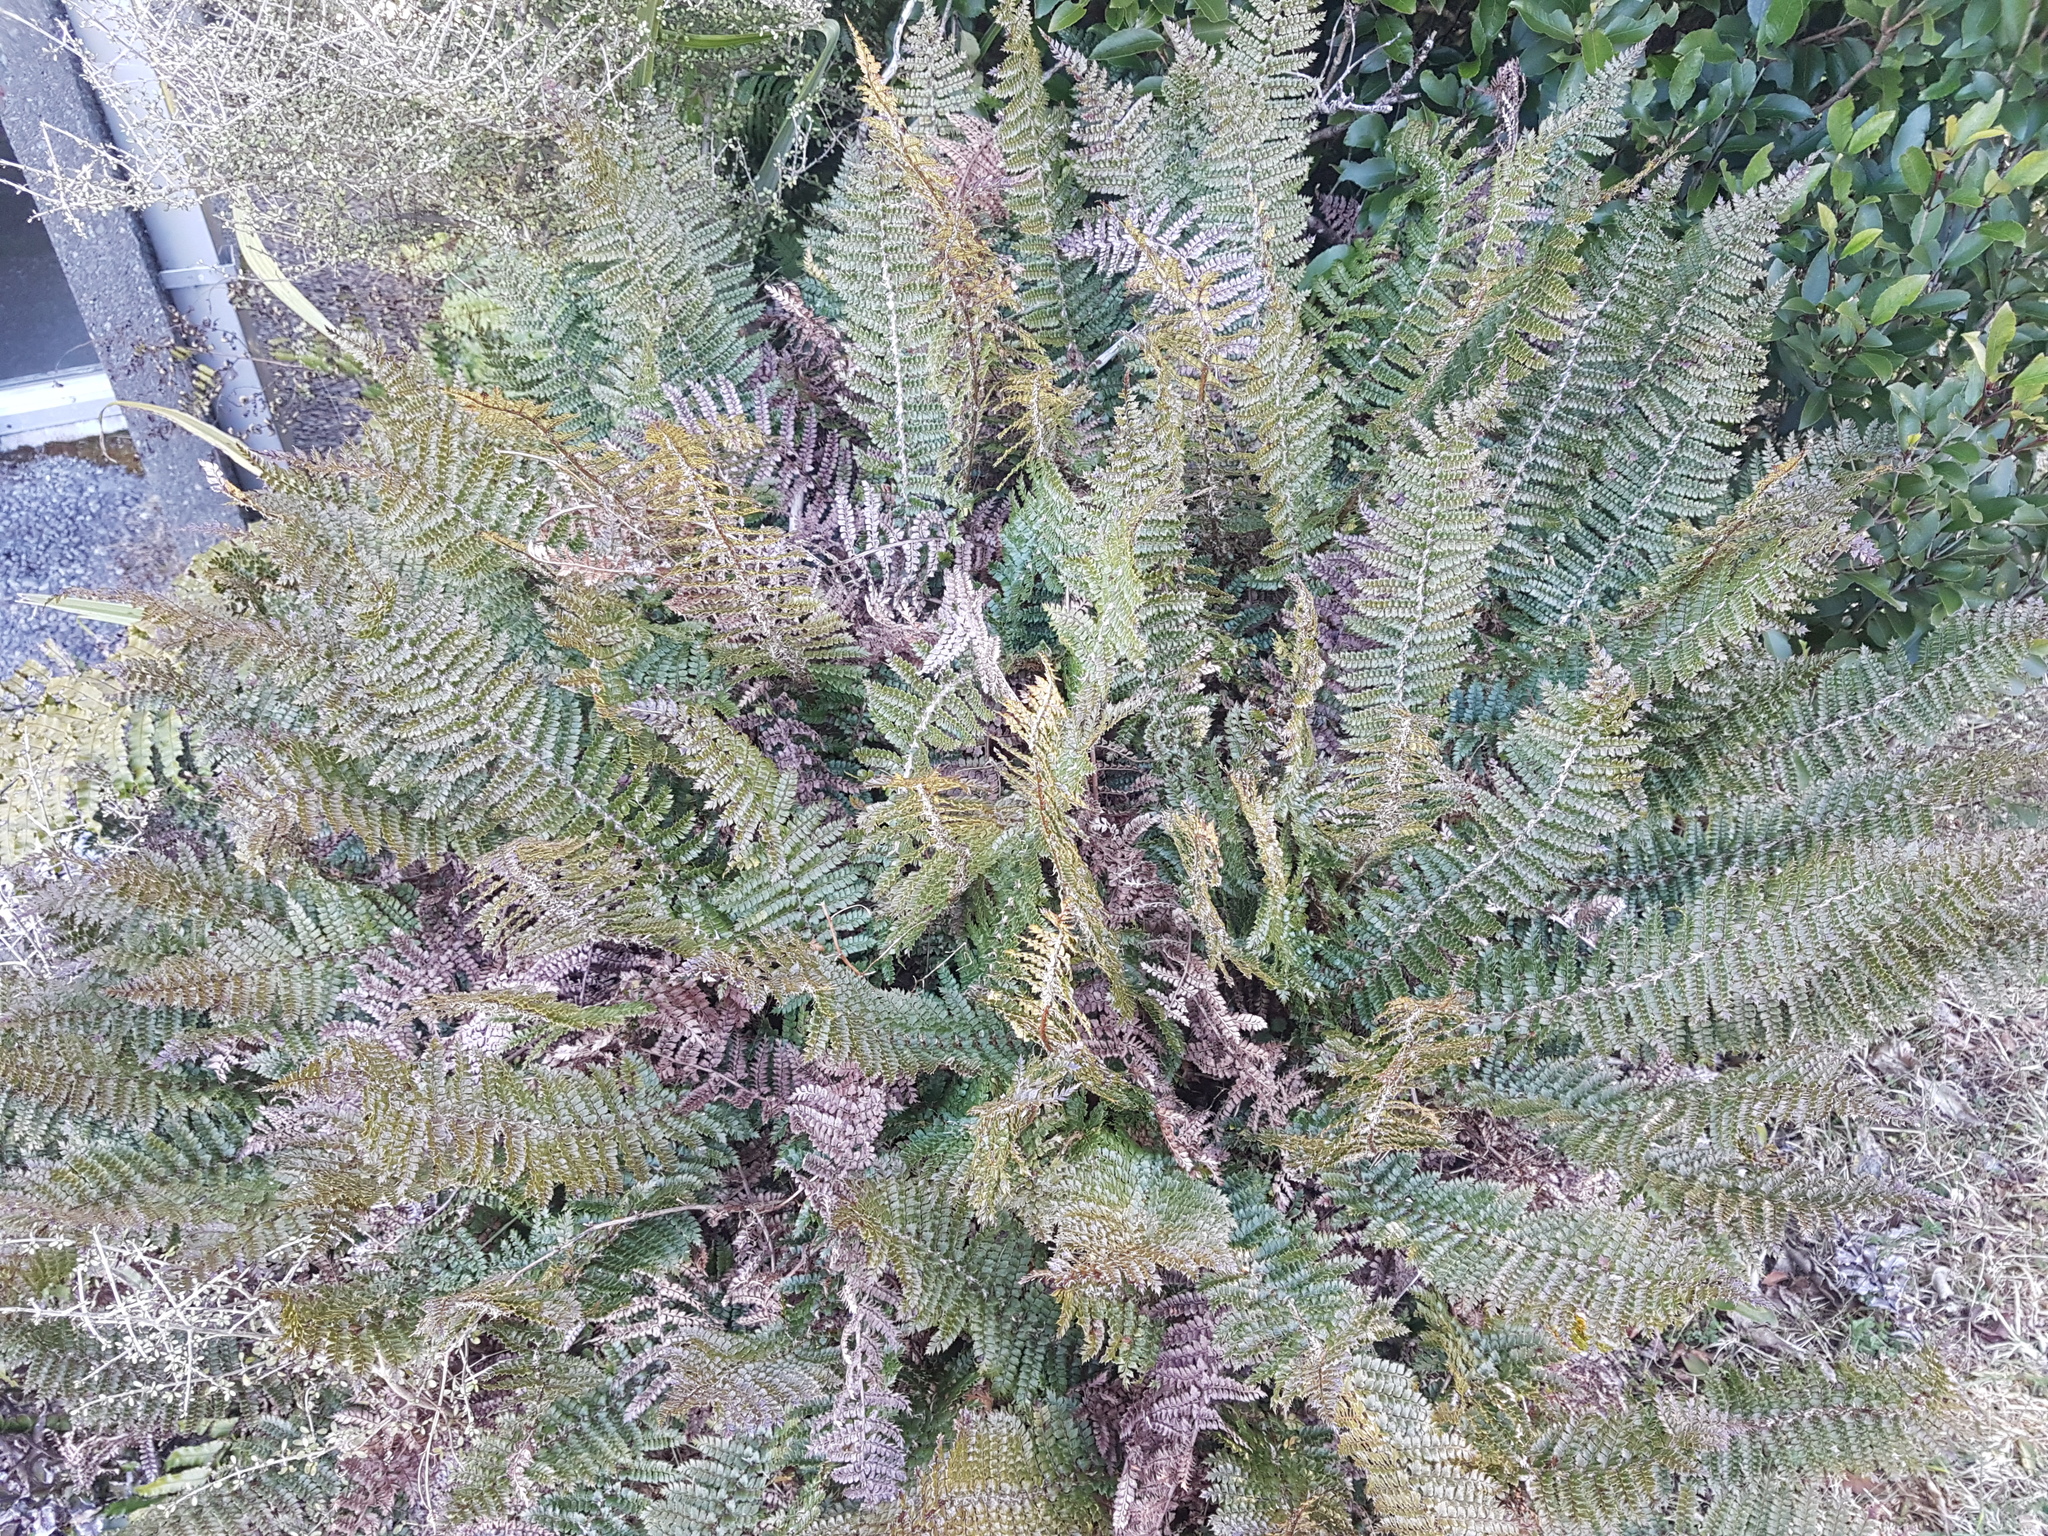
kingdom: Plantae
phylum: Tracheophyta
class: Polypodiopsida
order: Polypodiales
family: Dryopteridaceae
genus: Polystichum
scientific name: Polystichum vestitum
